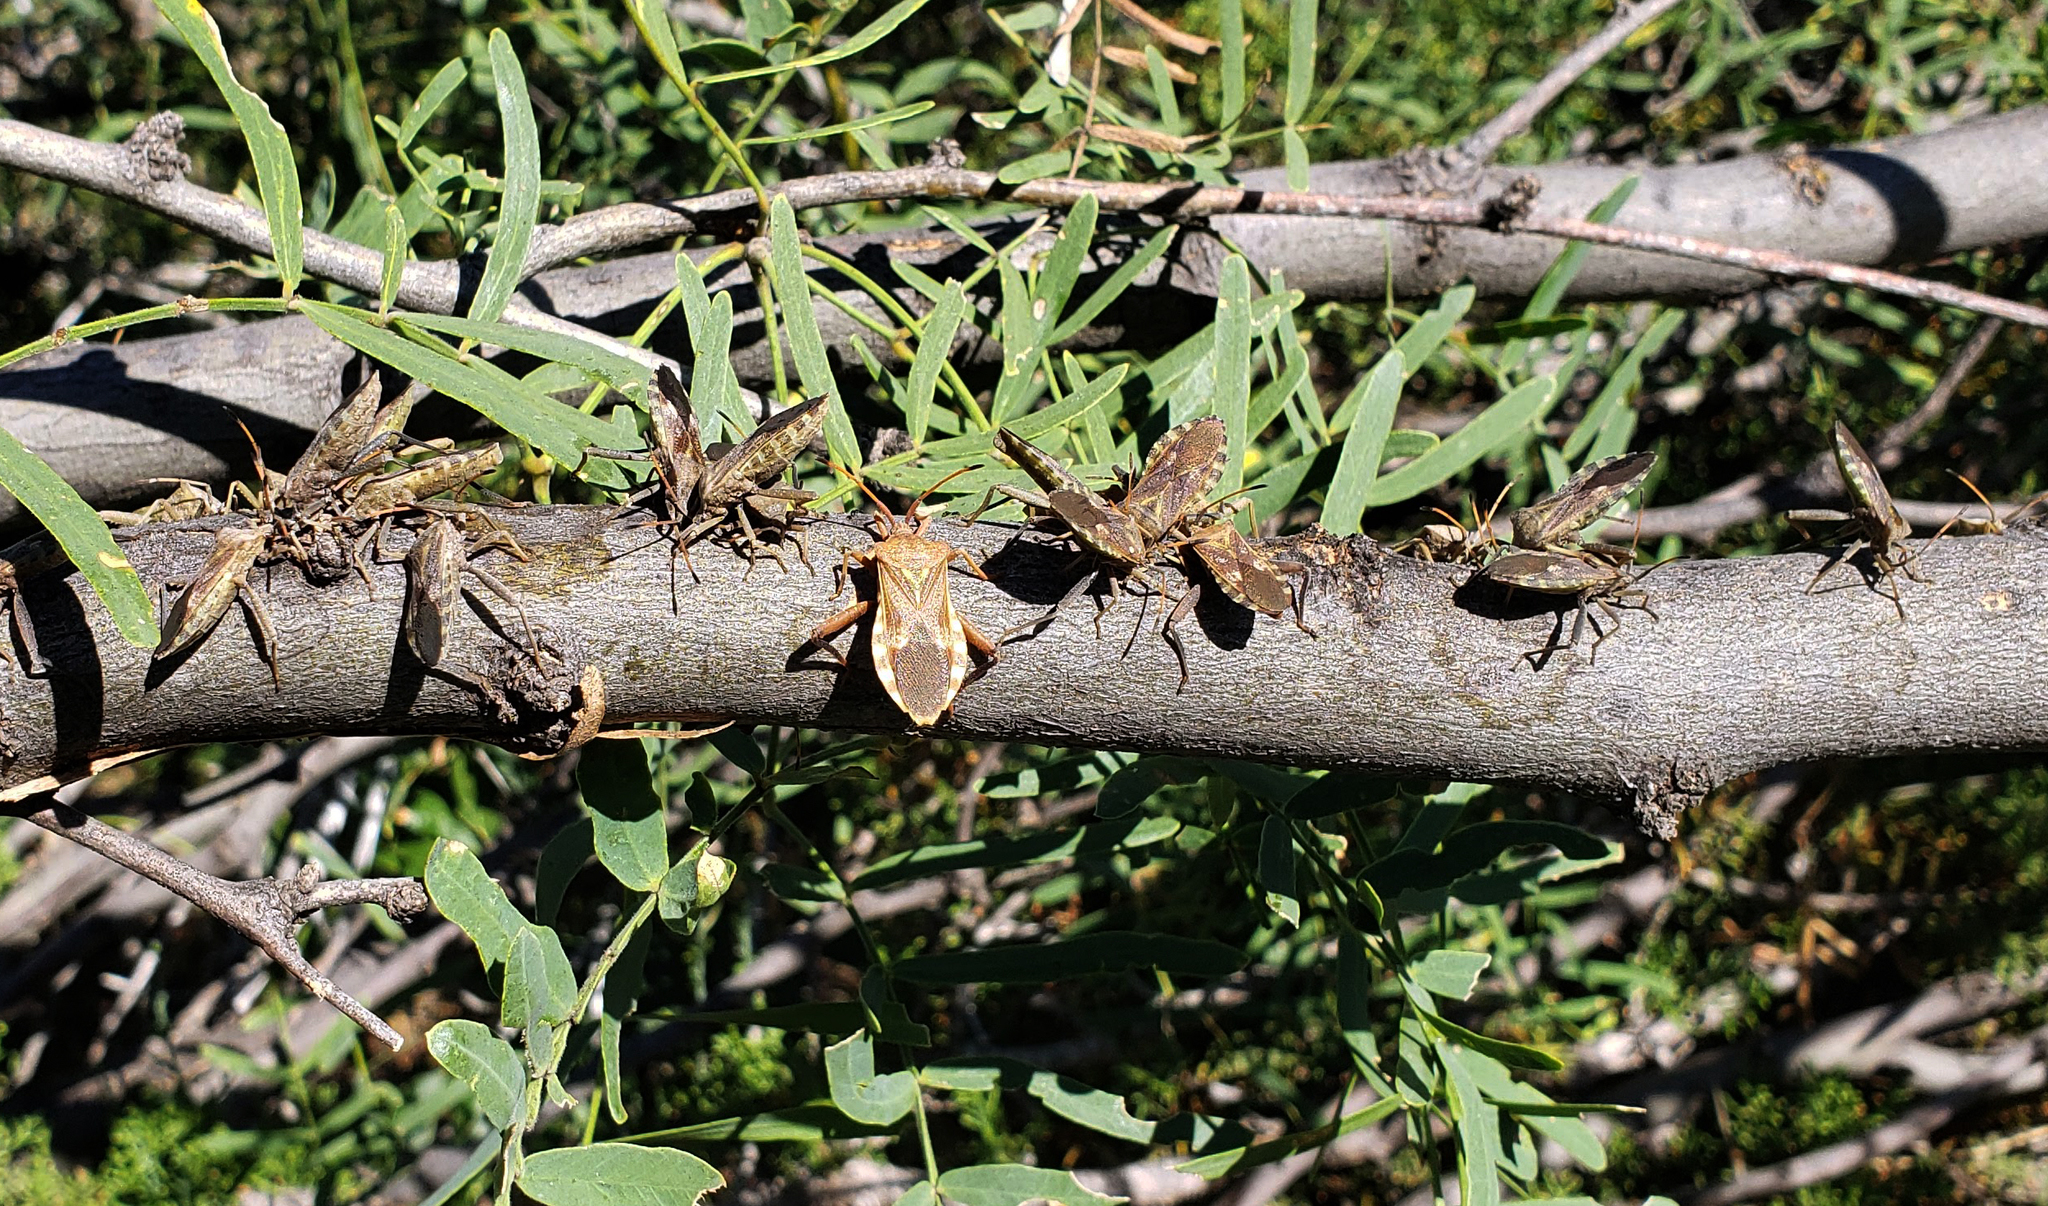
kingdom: Animalia
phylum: Arthropoda
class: Insecta
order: Hemiptera
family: Coreidae
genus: Mozena
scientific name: Mozena obtusa
